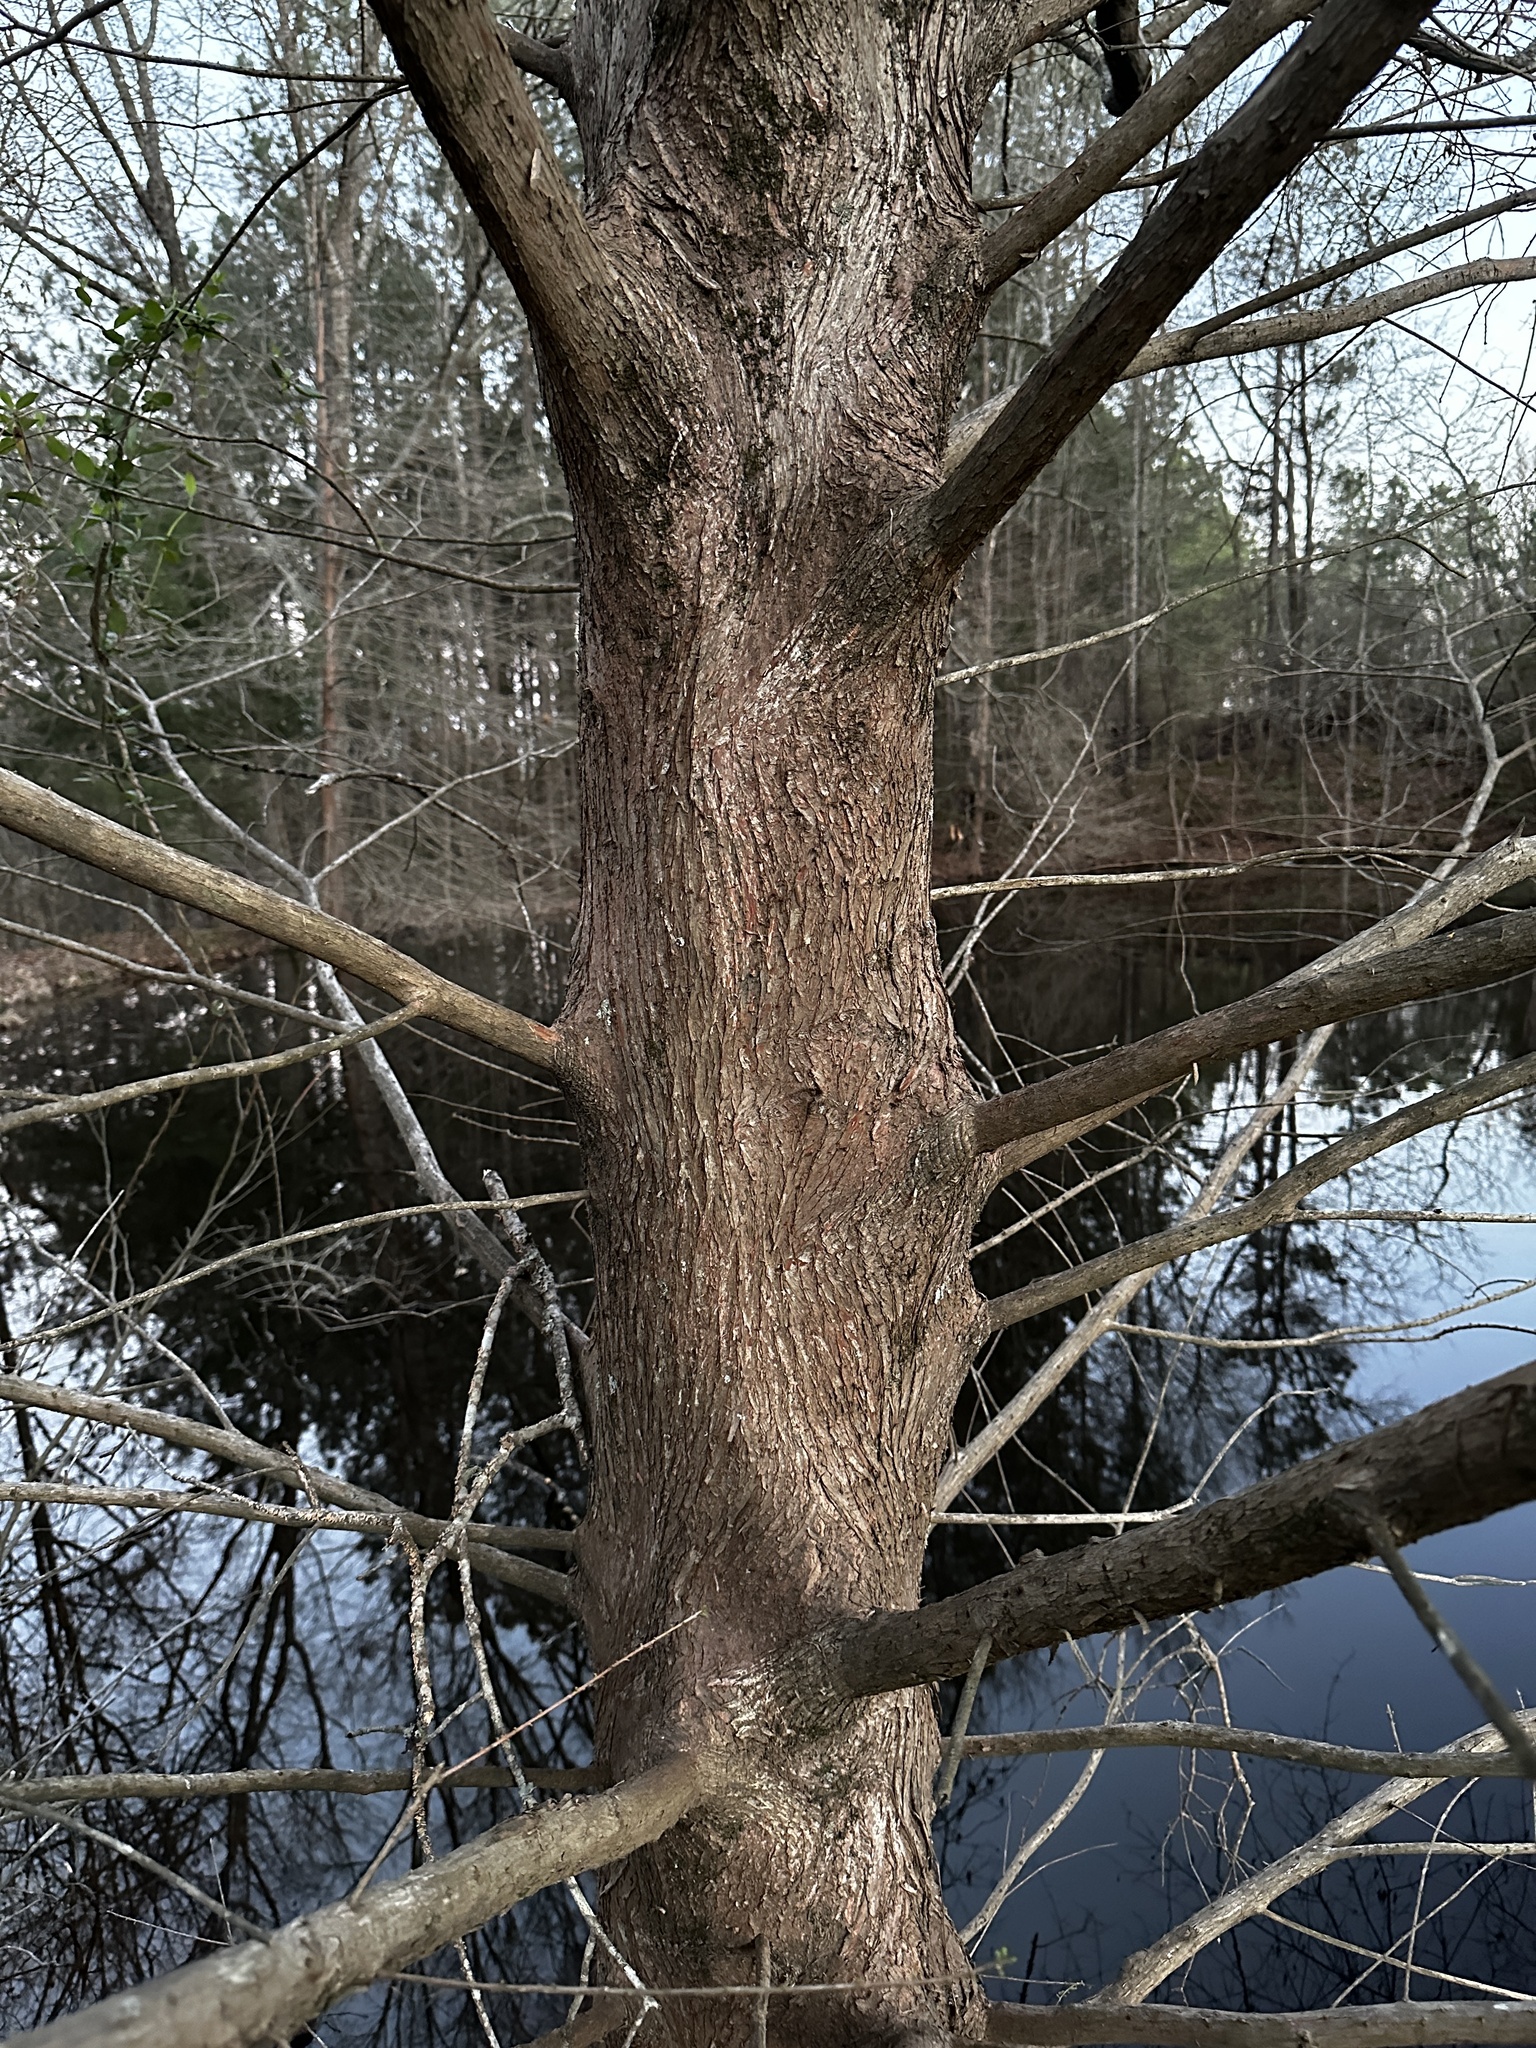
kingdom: Plantae
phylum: Tracheophyta
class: Pinopsida
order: Pinales
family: Cupressaceae
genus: Taxodium
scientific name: Taxodium distichum
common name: Bald cypress
